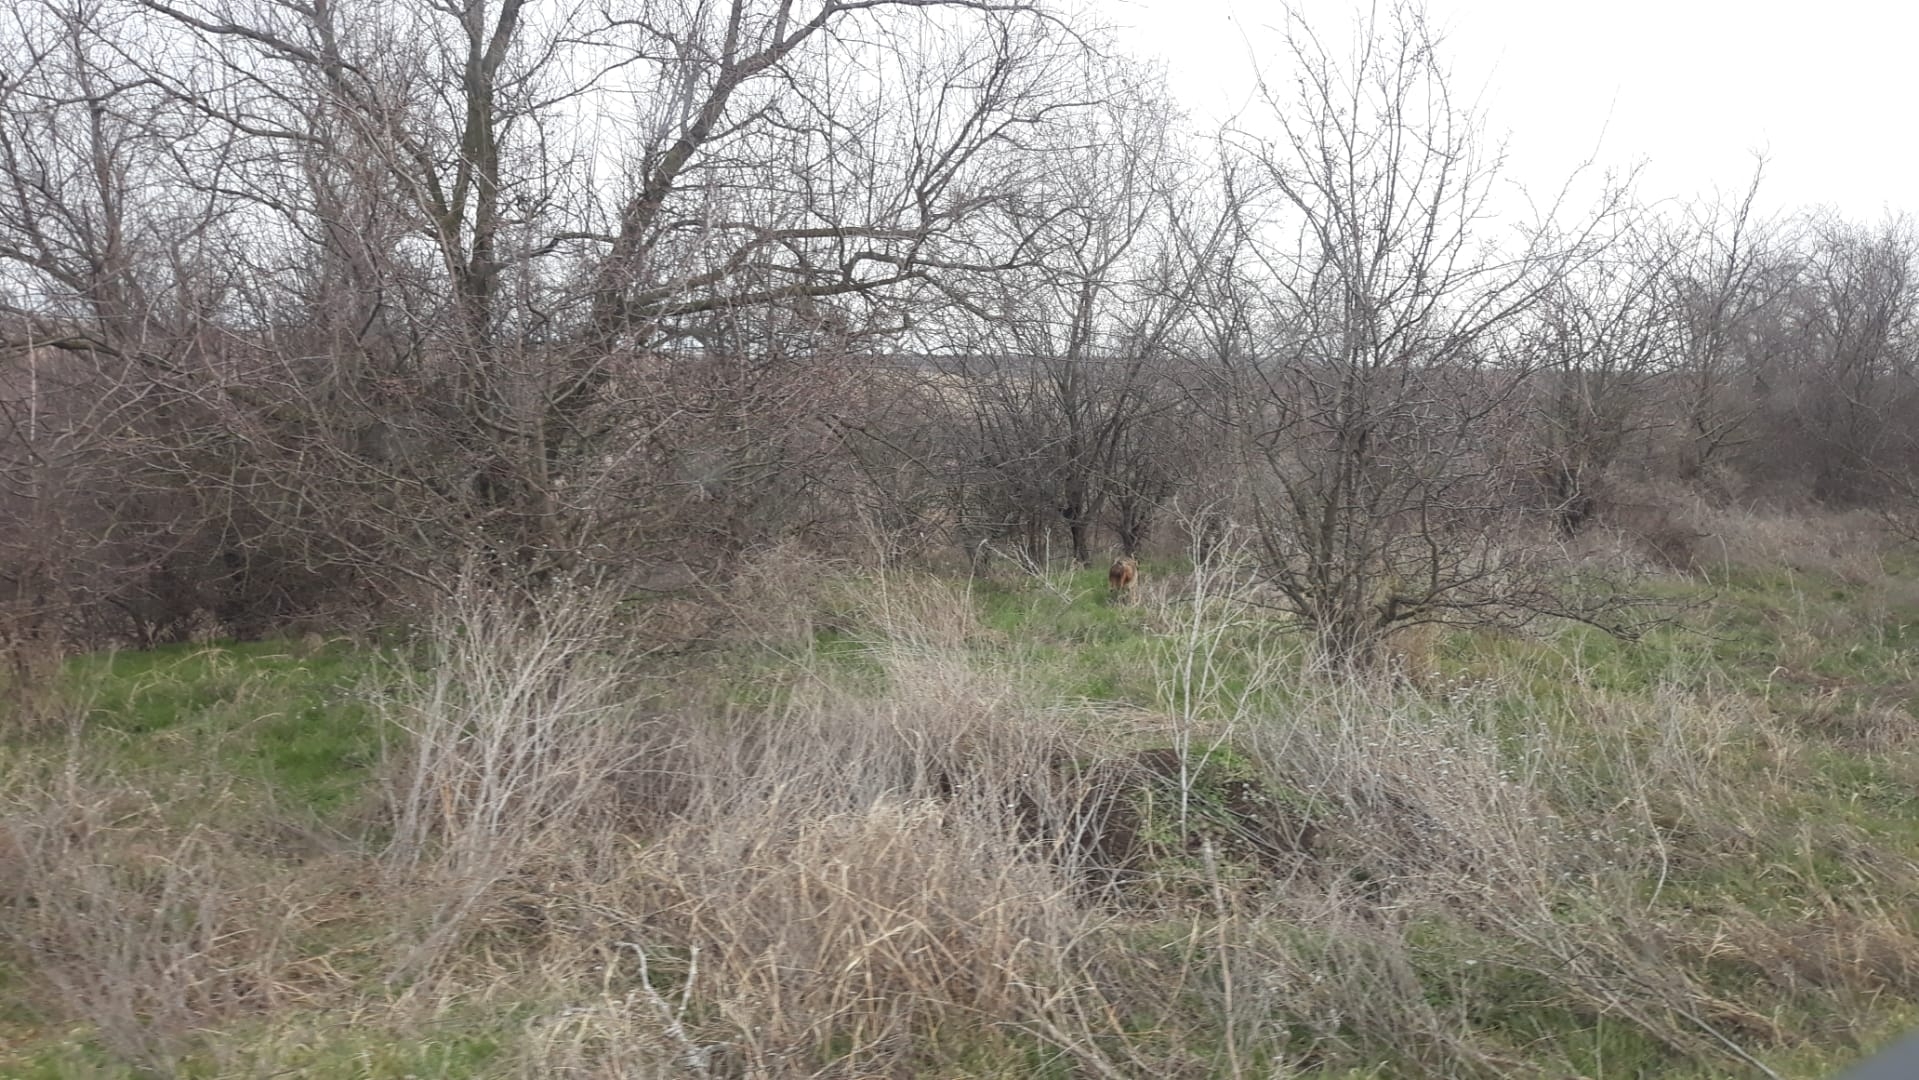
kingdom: Animalia
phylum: Chordata
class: Mammalia
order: Carnivora
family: Canidae
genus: Canis
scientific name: Canis aureus
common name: Golden jackal
